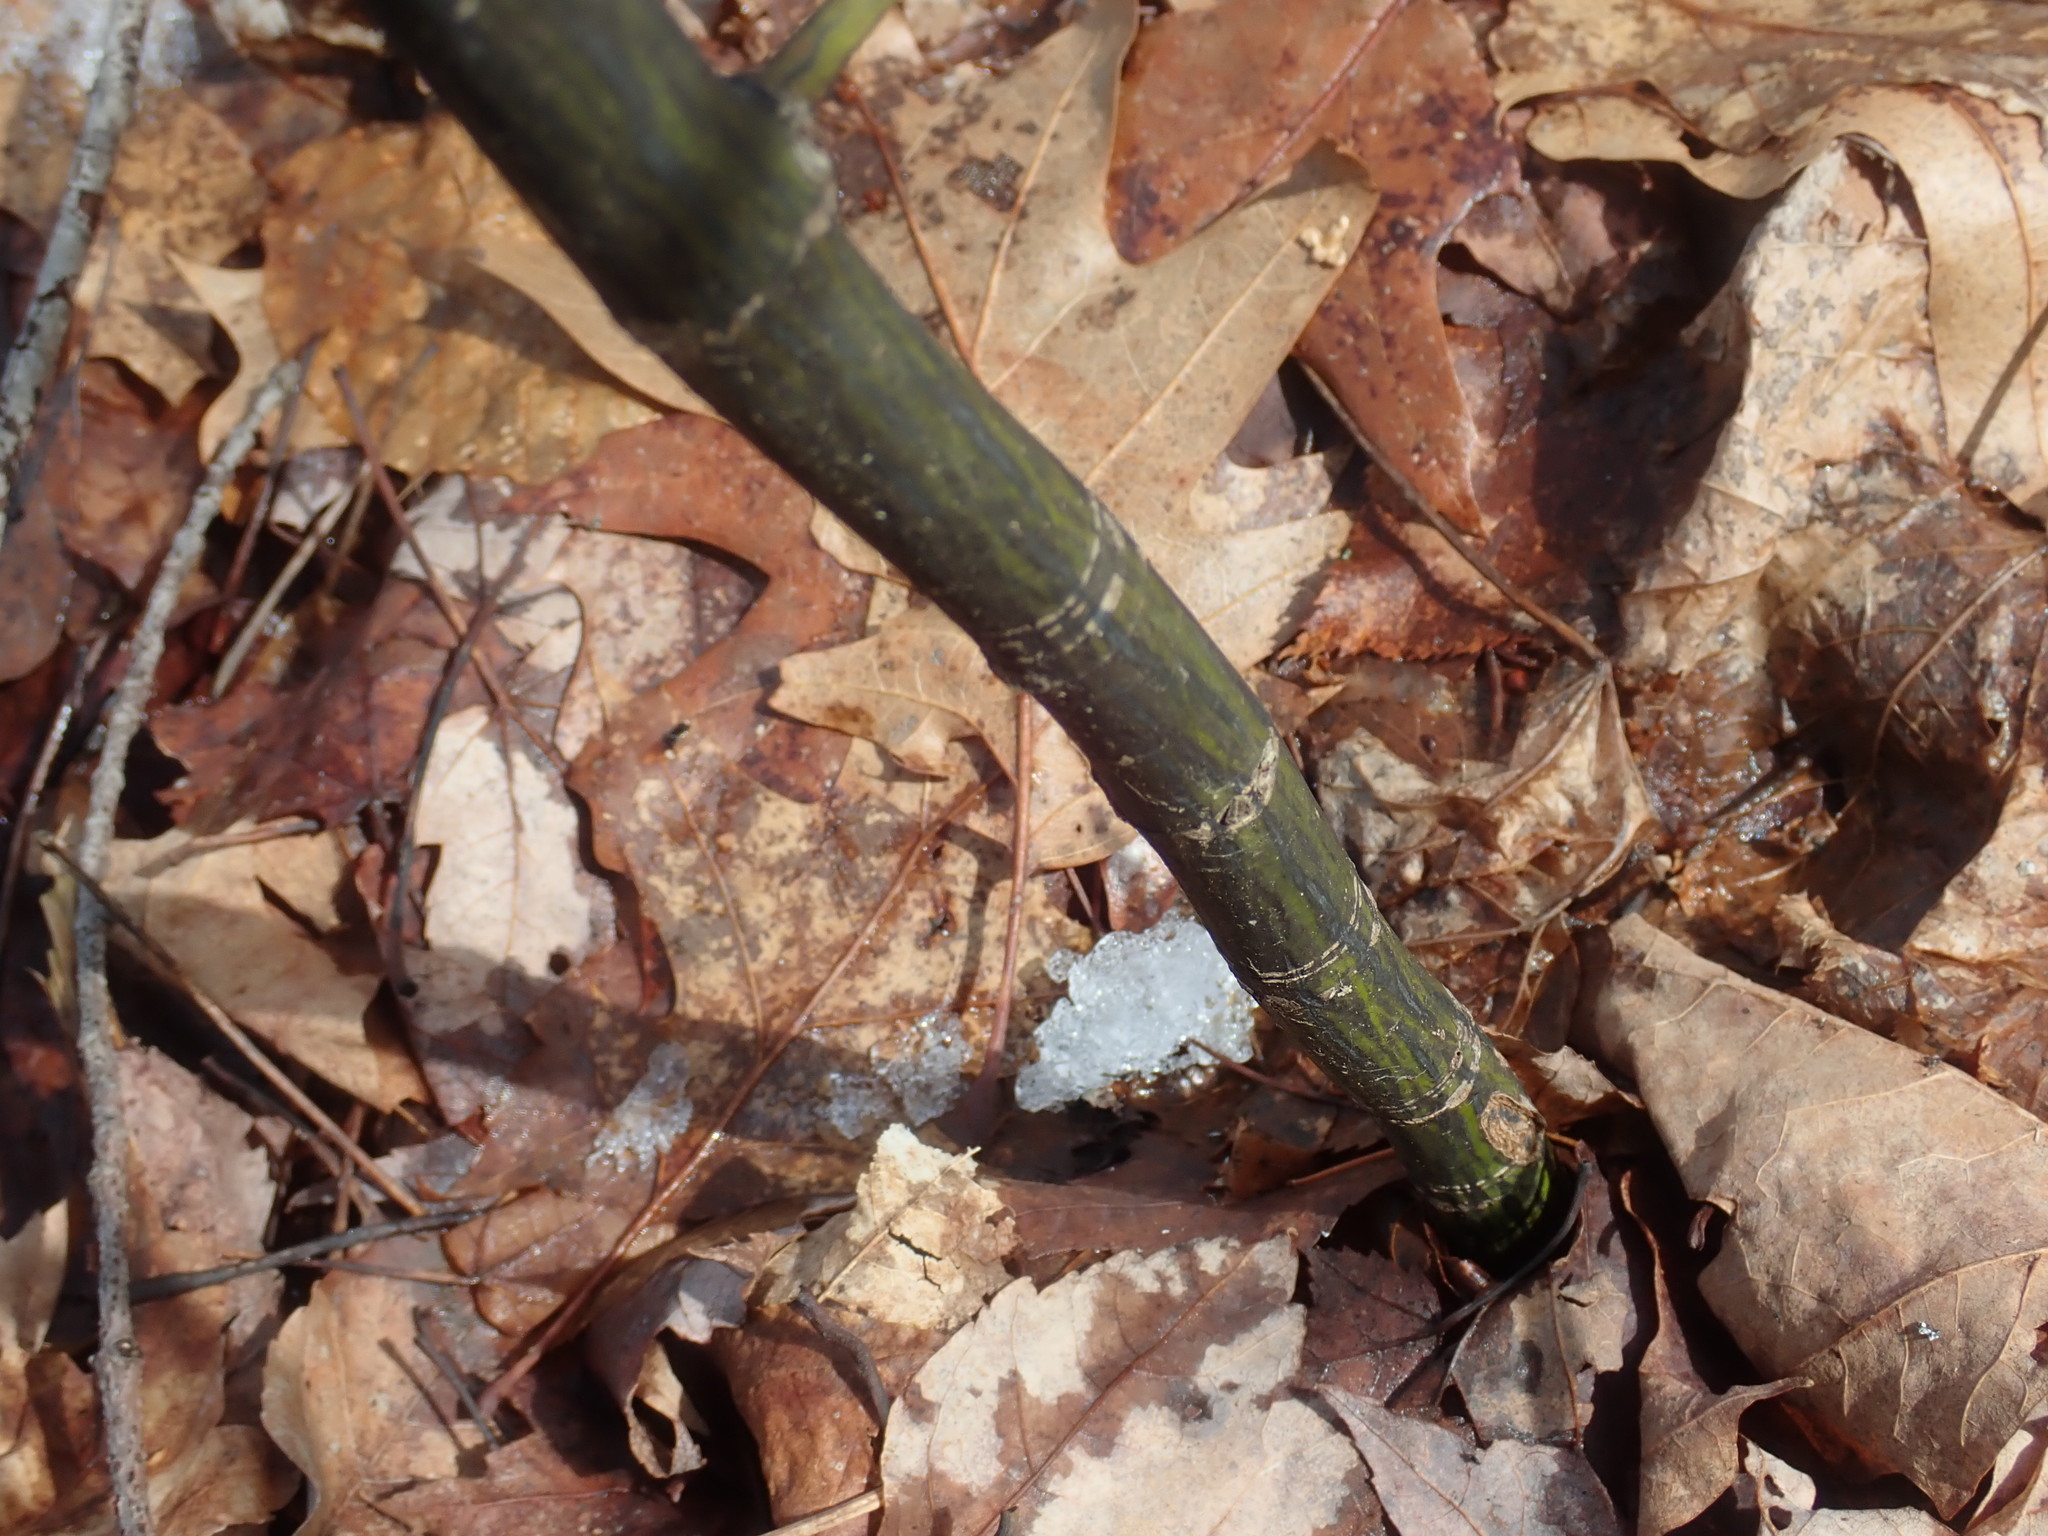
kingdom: Plantae
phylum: Tracheophyta
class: Magnoliopsida
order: Sapindales
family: Sapindaceae
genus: Acer
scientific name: Acer pensylvanicum
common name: Moosewood
